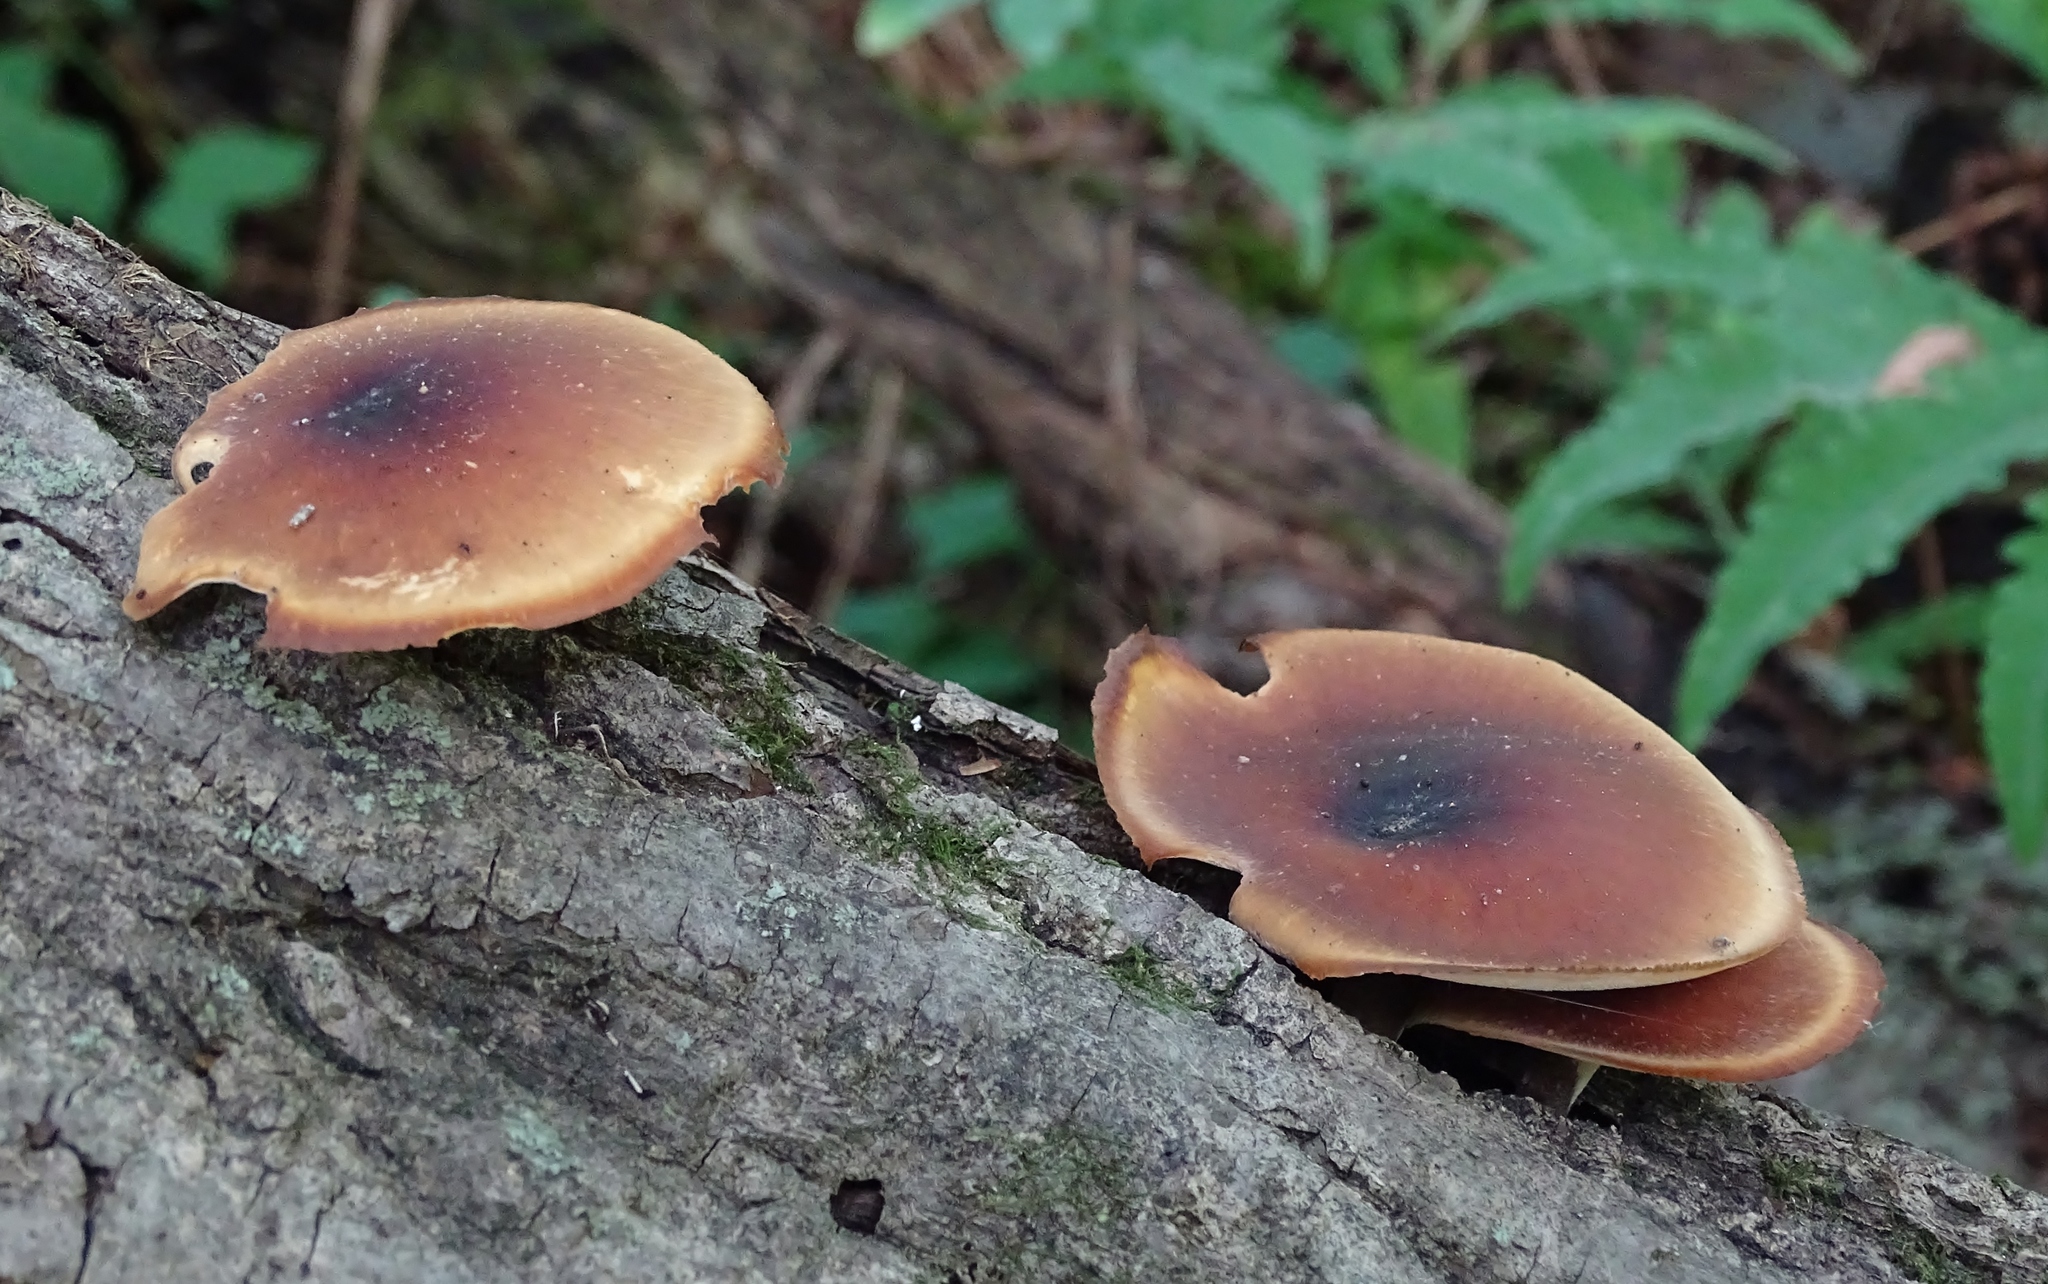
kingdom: Fungi
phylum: Basidiomycota
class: Agaricomycetes
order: Polyporales
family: Polyporaceae
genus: Picipes
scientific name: Picipes badius
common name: Bay polypore
